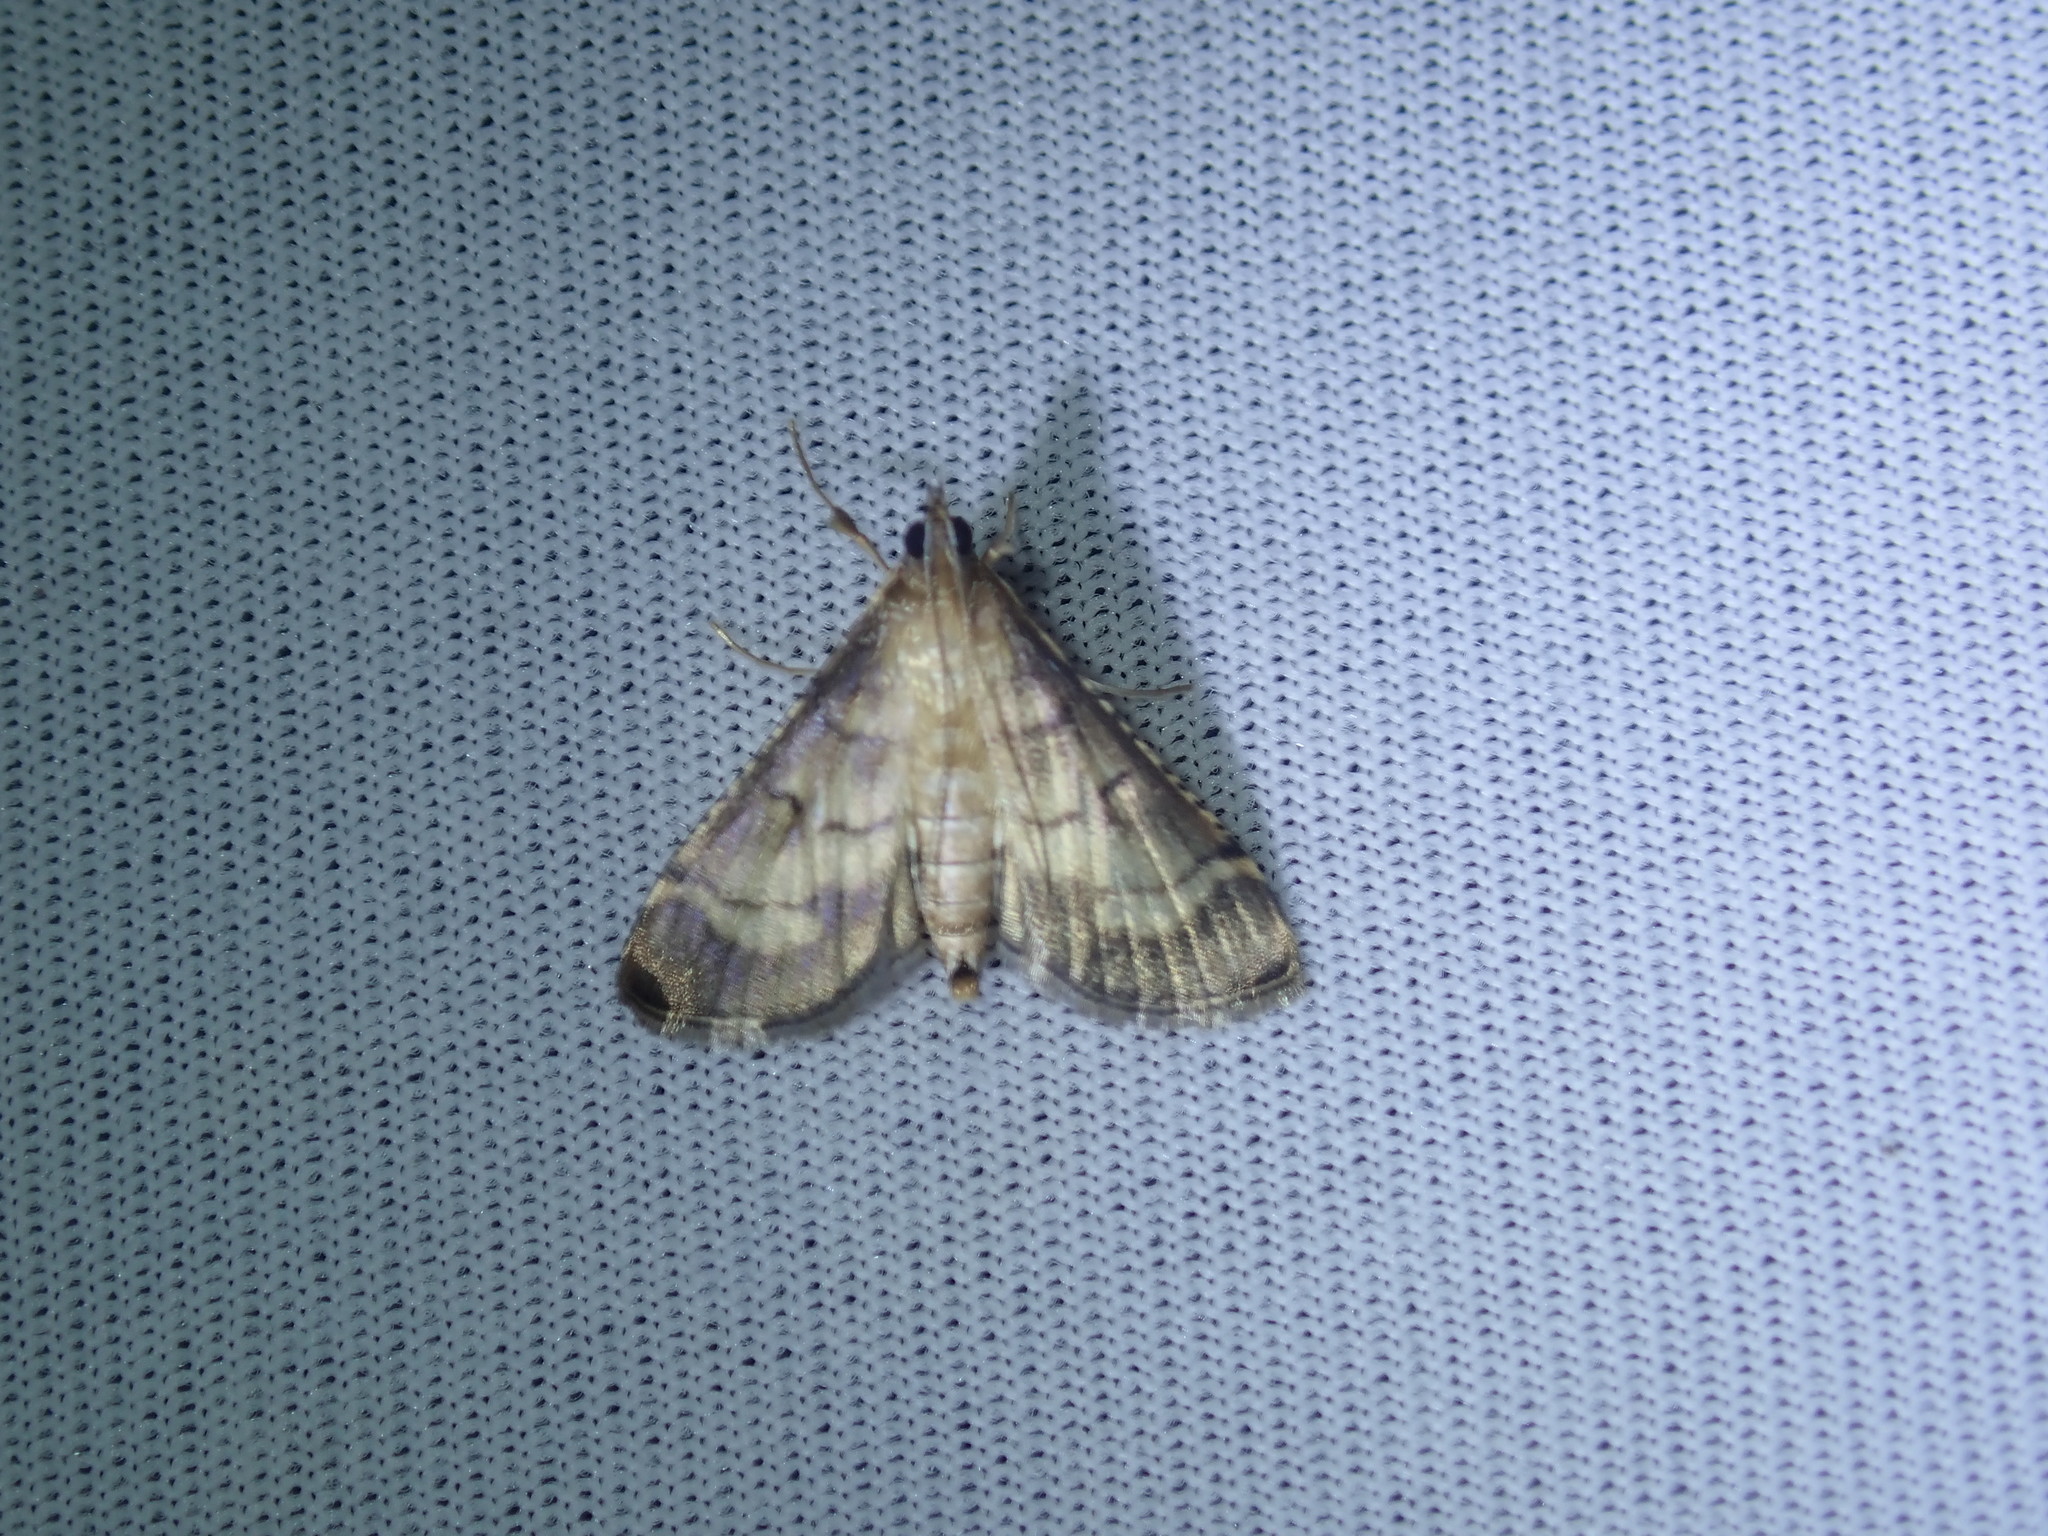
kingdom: Animalia
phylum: Arthropoda
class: Insecta
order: Lepidoptera
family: Crambidae
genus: Cnaphalocrocis
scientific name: Cnaphalocrocis poeyalis
